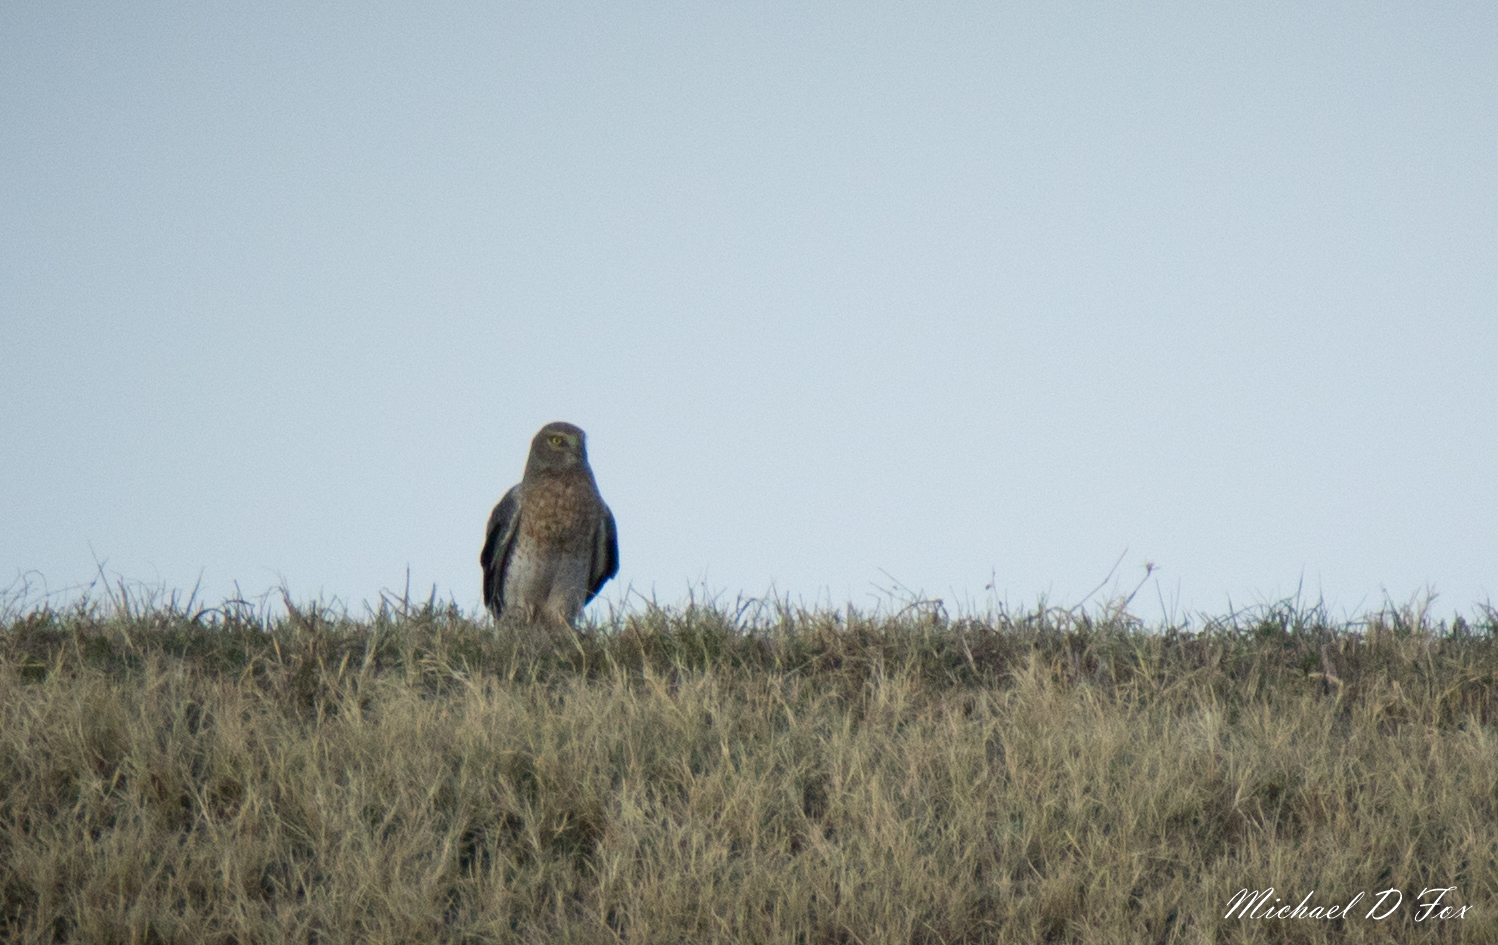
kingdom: Animalia
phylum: Chordata
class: Aves
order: Accipitriformes
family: Accipitridae
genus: Circus
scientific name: Circus cyaneus
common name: Hen harrier
